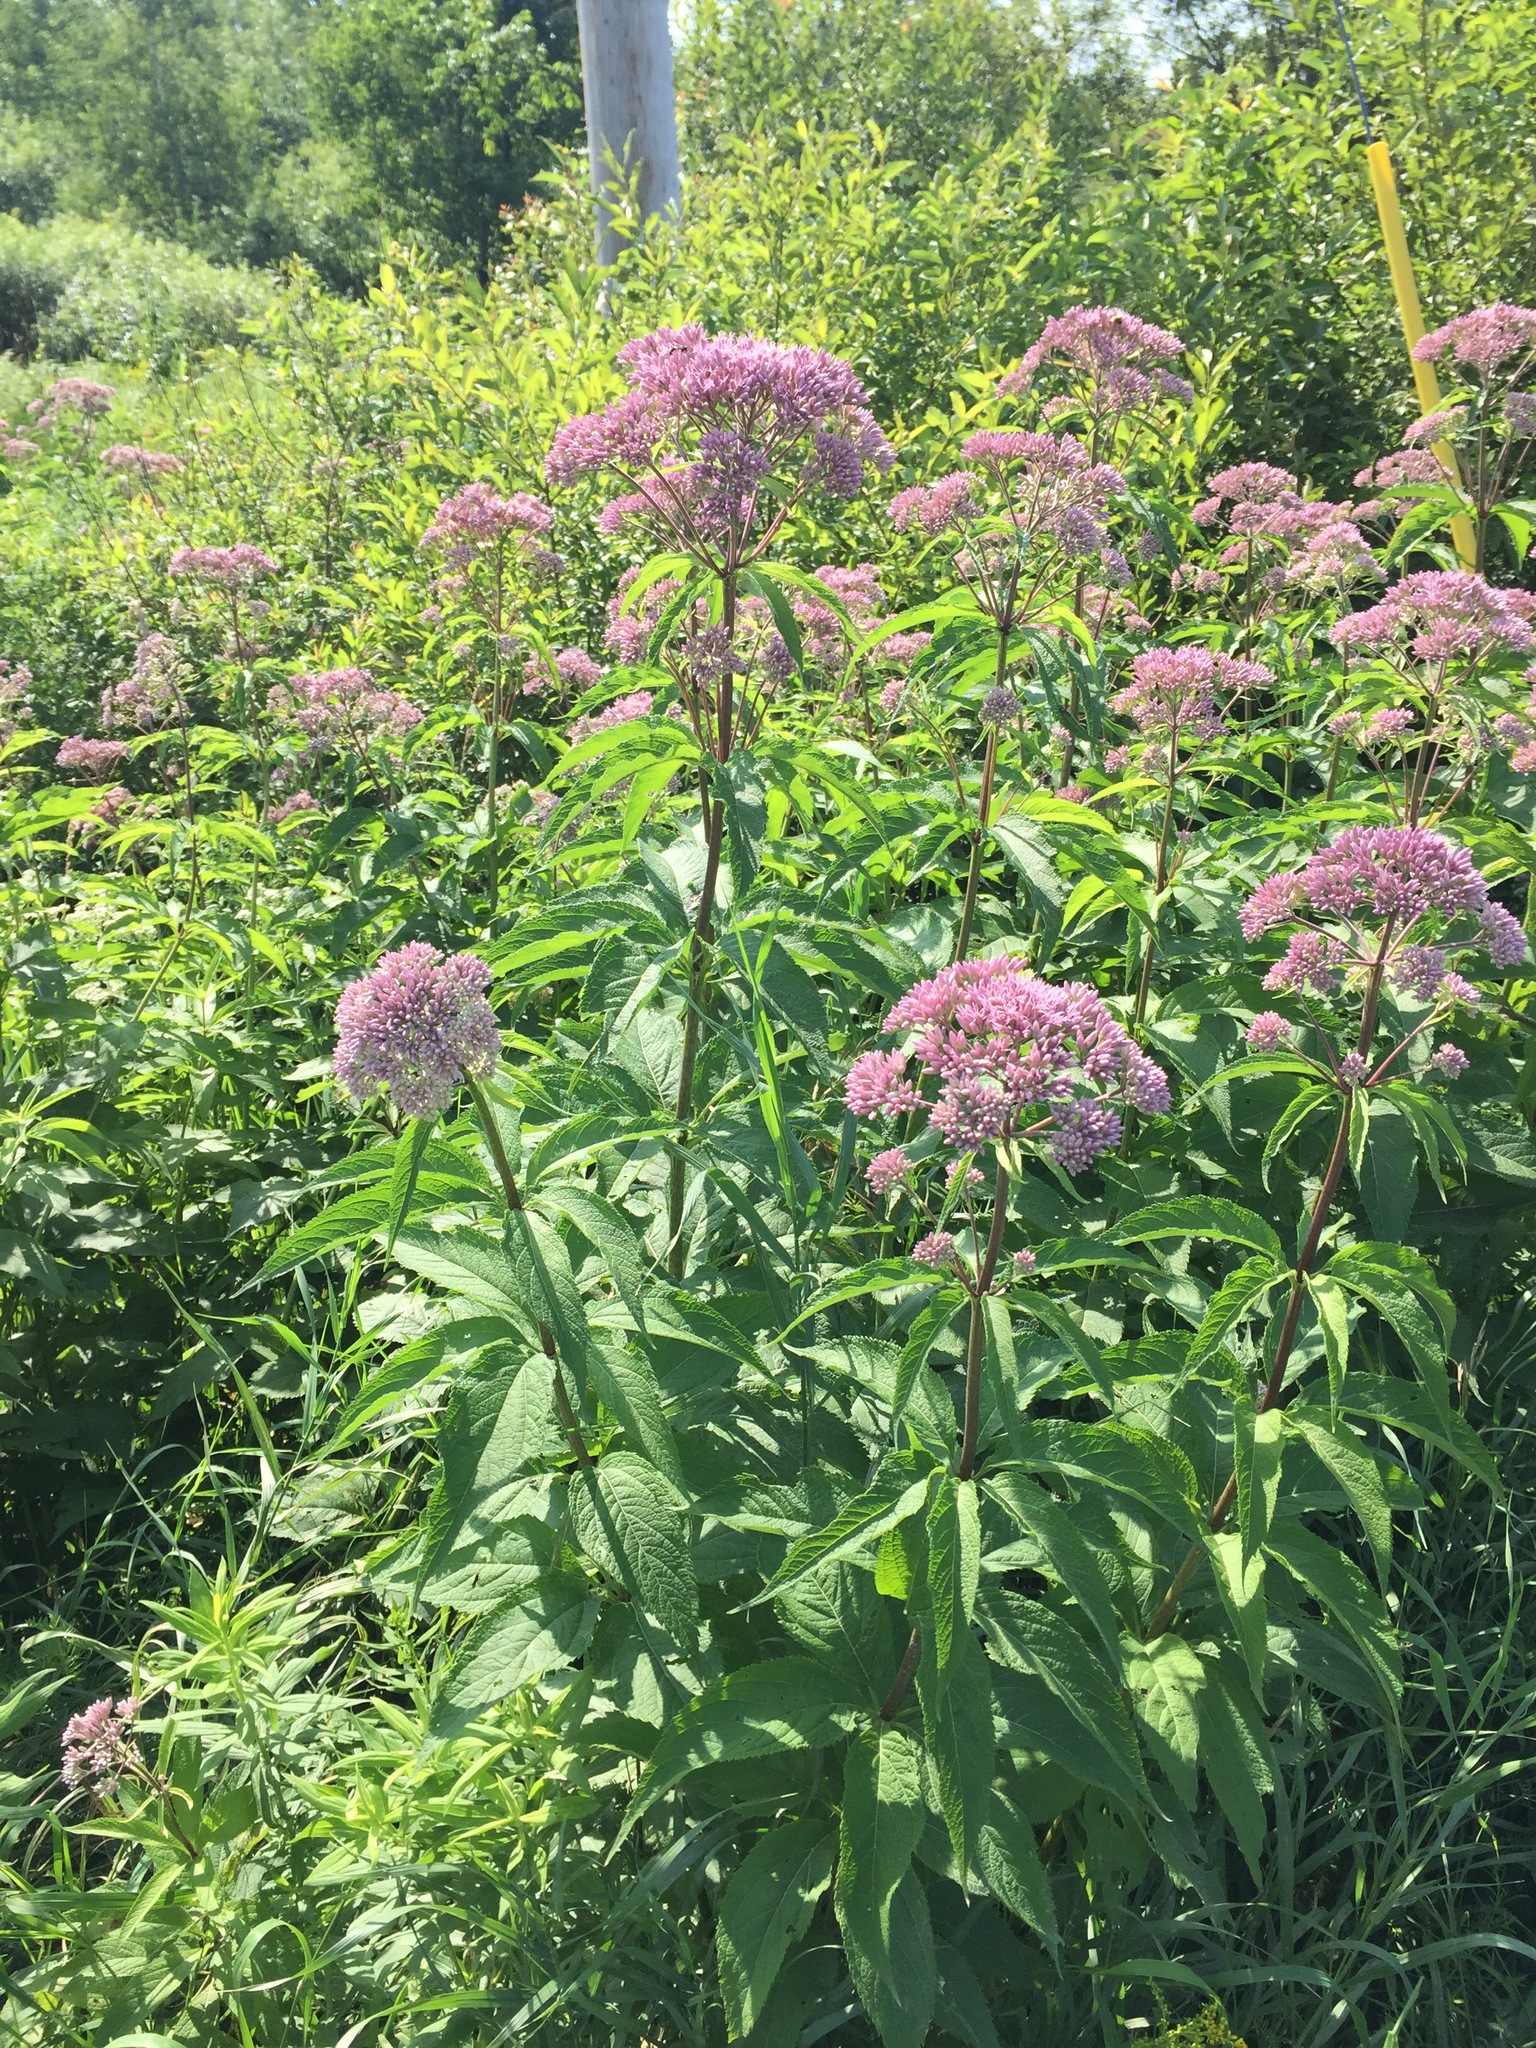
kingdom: Plantae
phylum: Tracheophyta
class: Magnoliopsida
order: Asterales
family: Asteraceae
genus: Eutrochium
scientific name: Eutrochium maculatum
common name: Spotted joe pye weed
